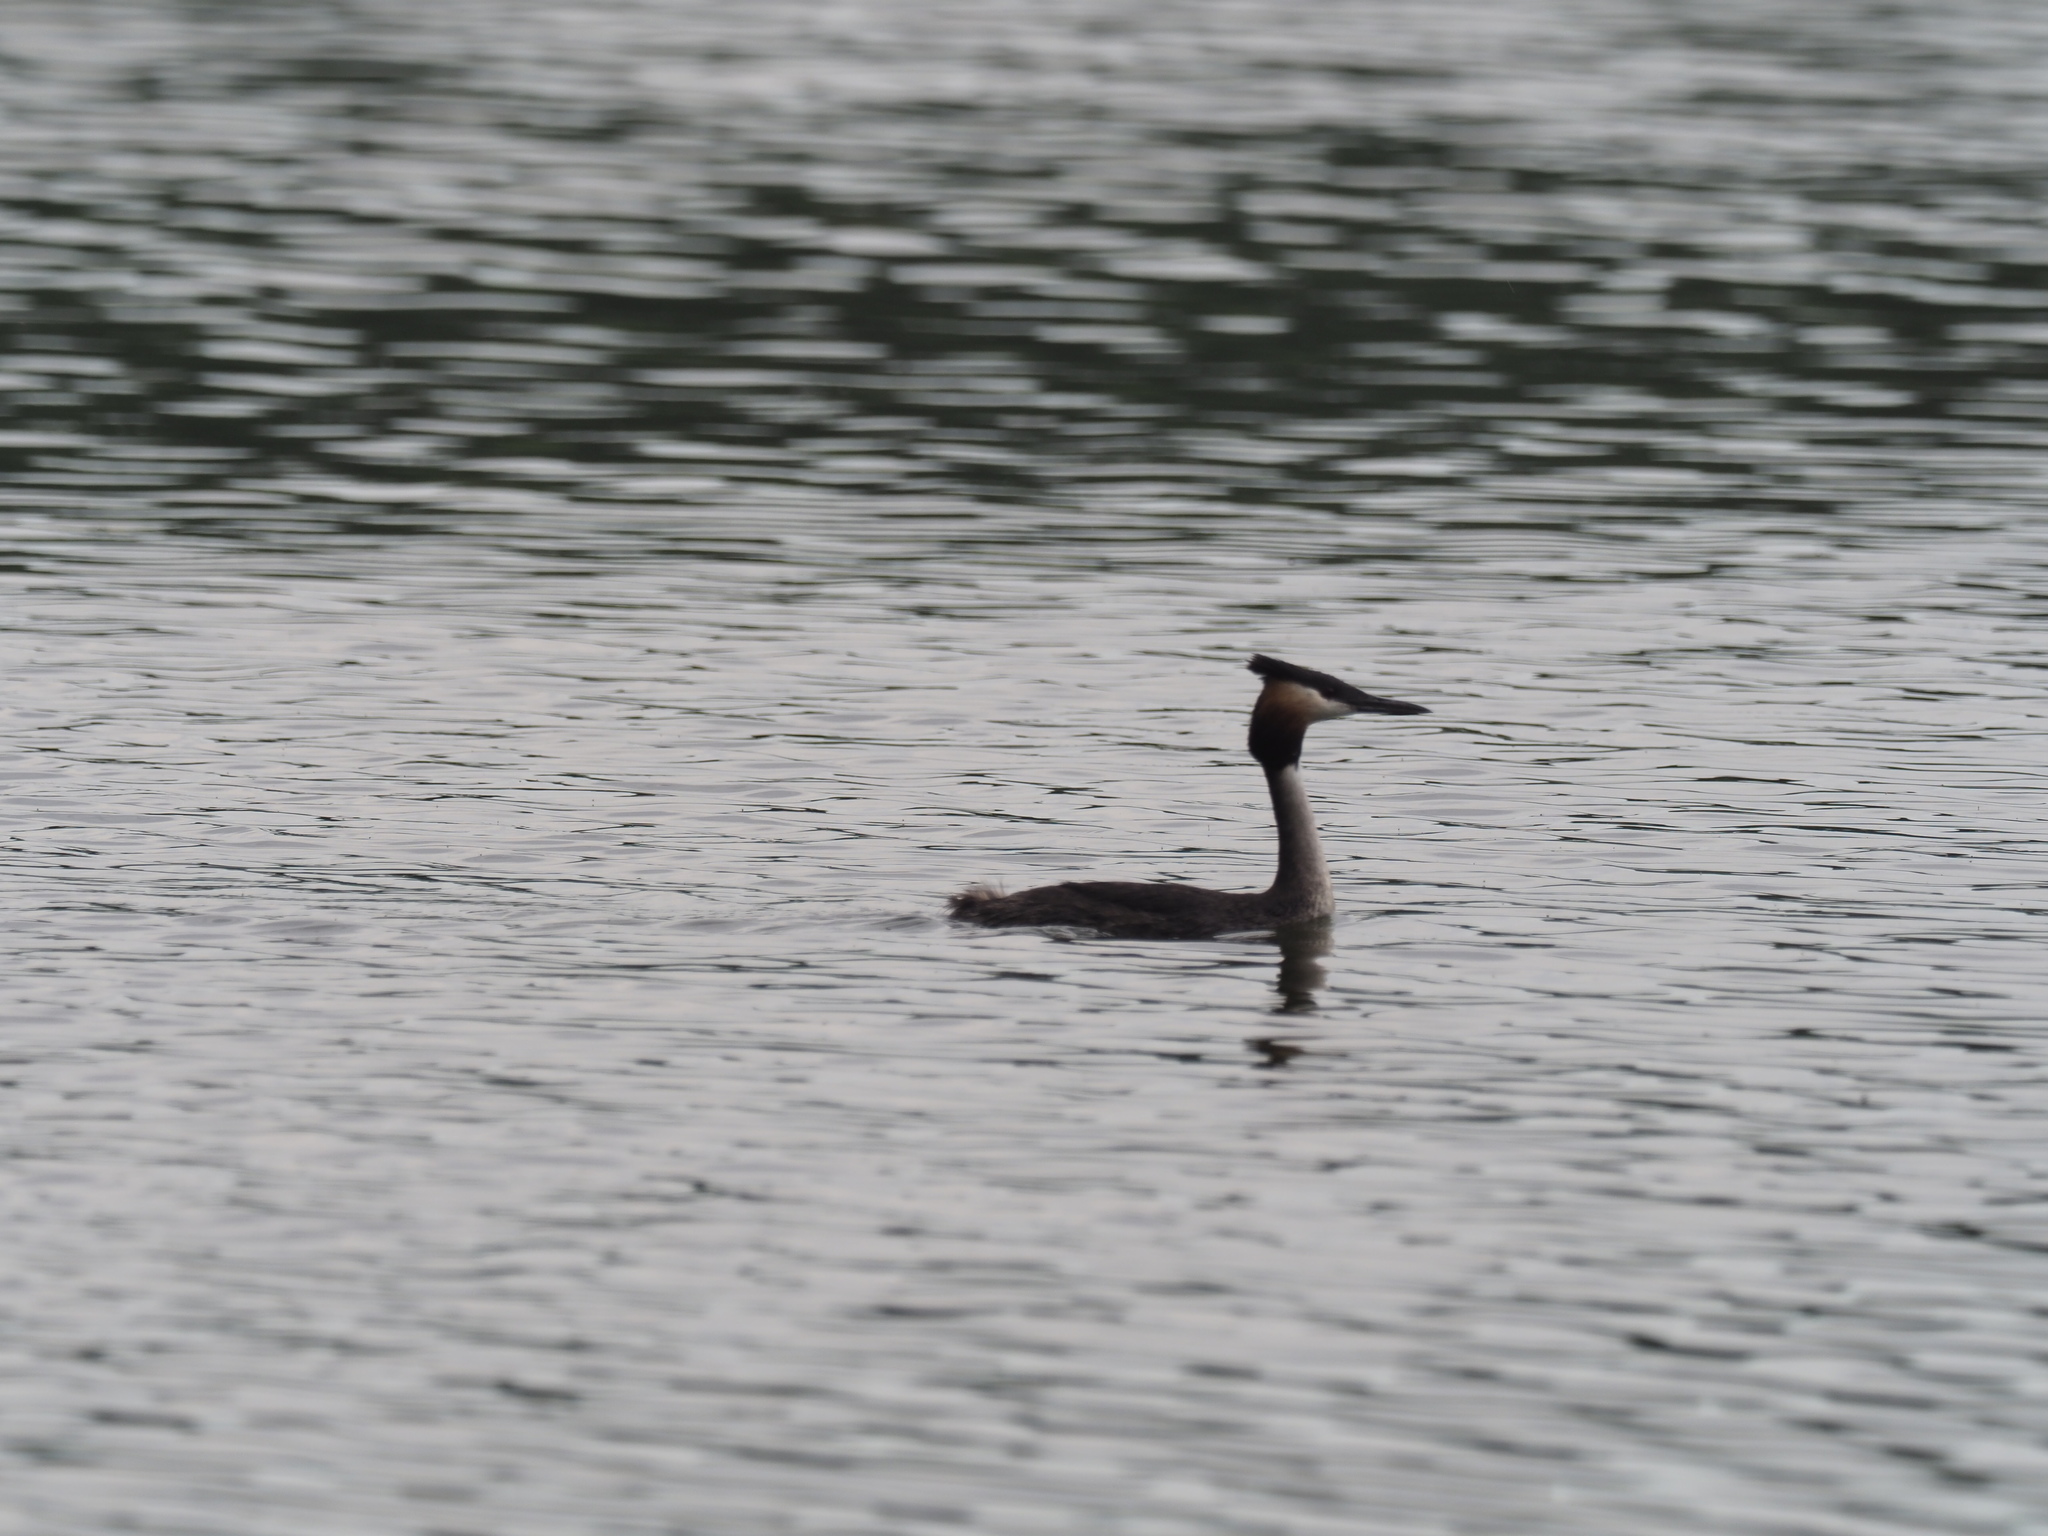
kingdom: Animalia
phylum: Chordata
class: Aves
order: Podicipediformes
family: Podicipedidae
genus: Podiceps
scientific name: Podiceps cristatus
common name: Great crested grebe
